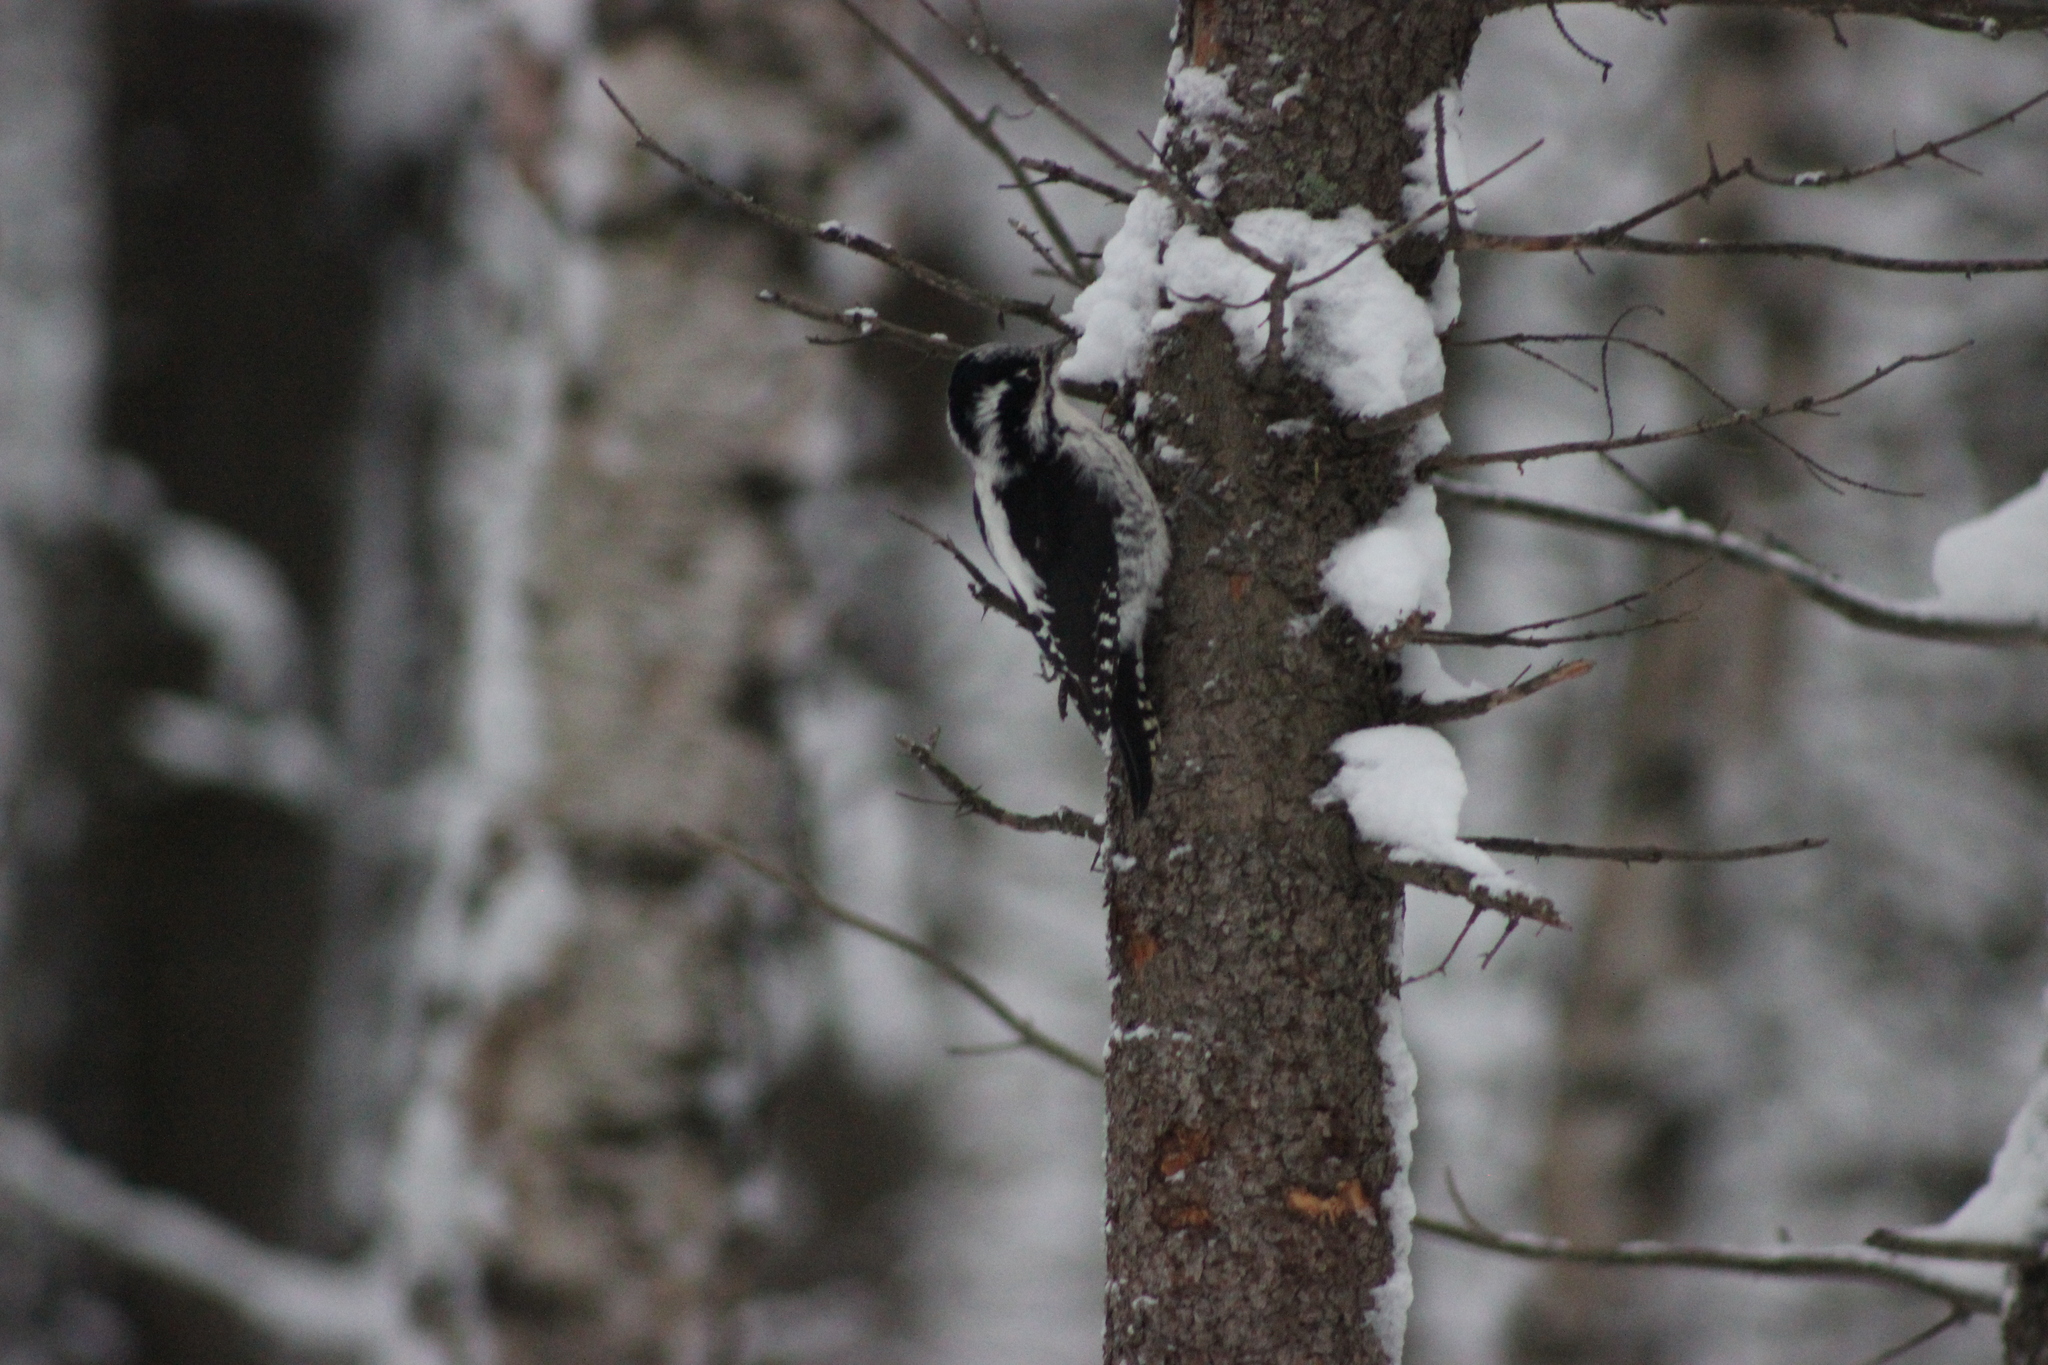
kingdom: Animalia
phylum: Chordata
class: Aves
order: Piciformes
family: Picidae
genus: Picoides
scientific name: Picoides tridactylus
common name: Eurasian three-toed woodpecker
